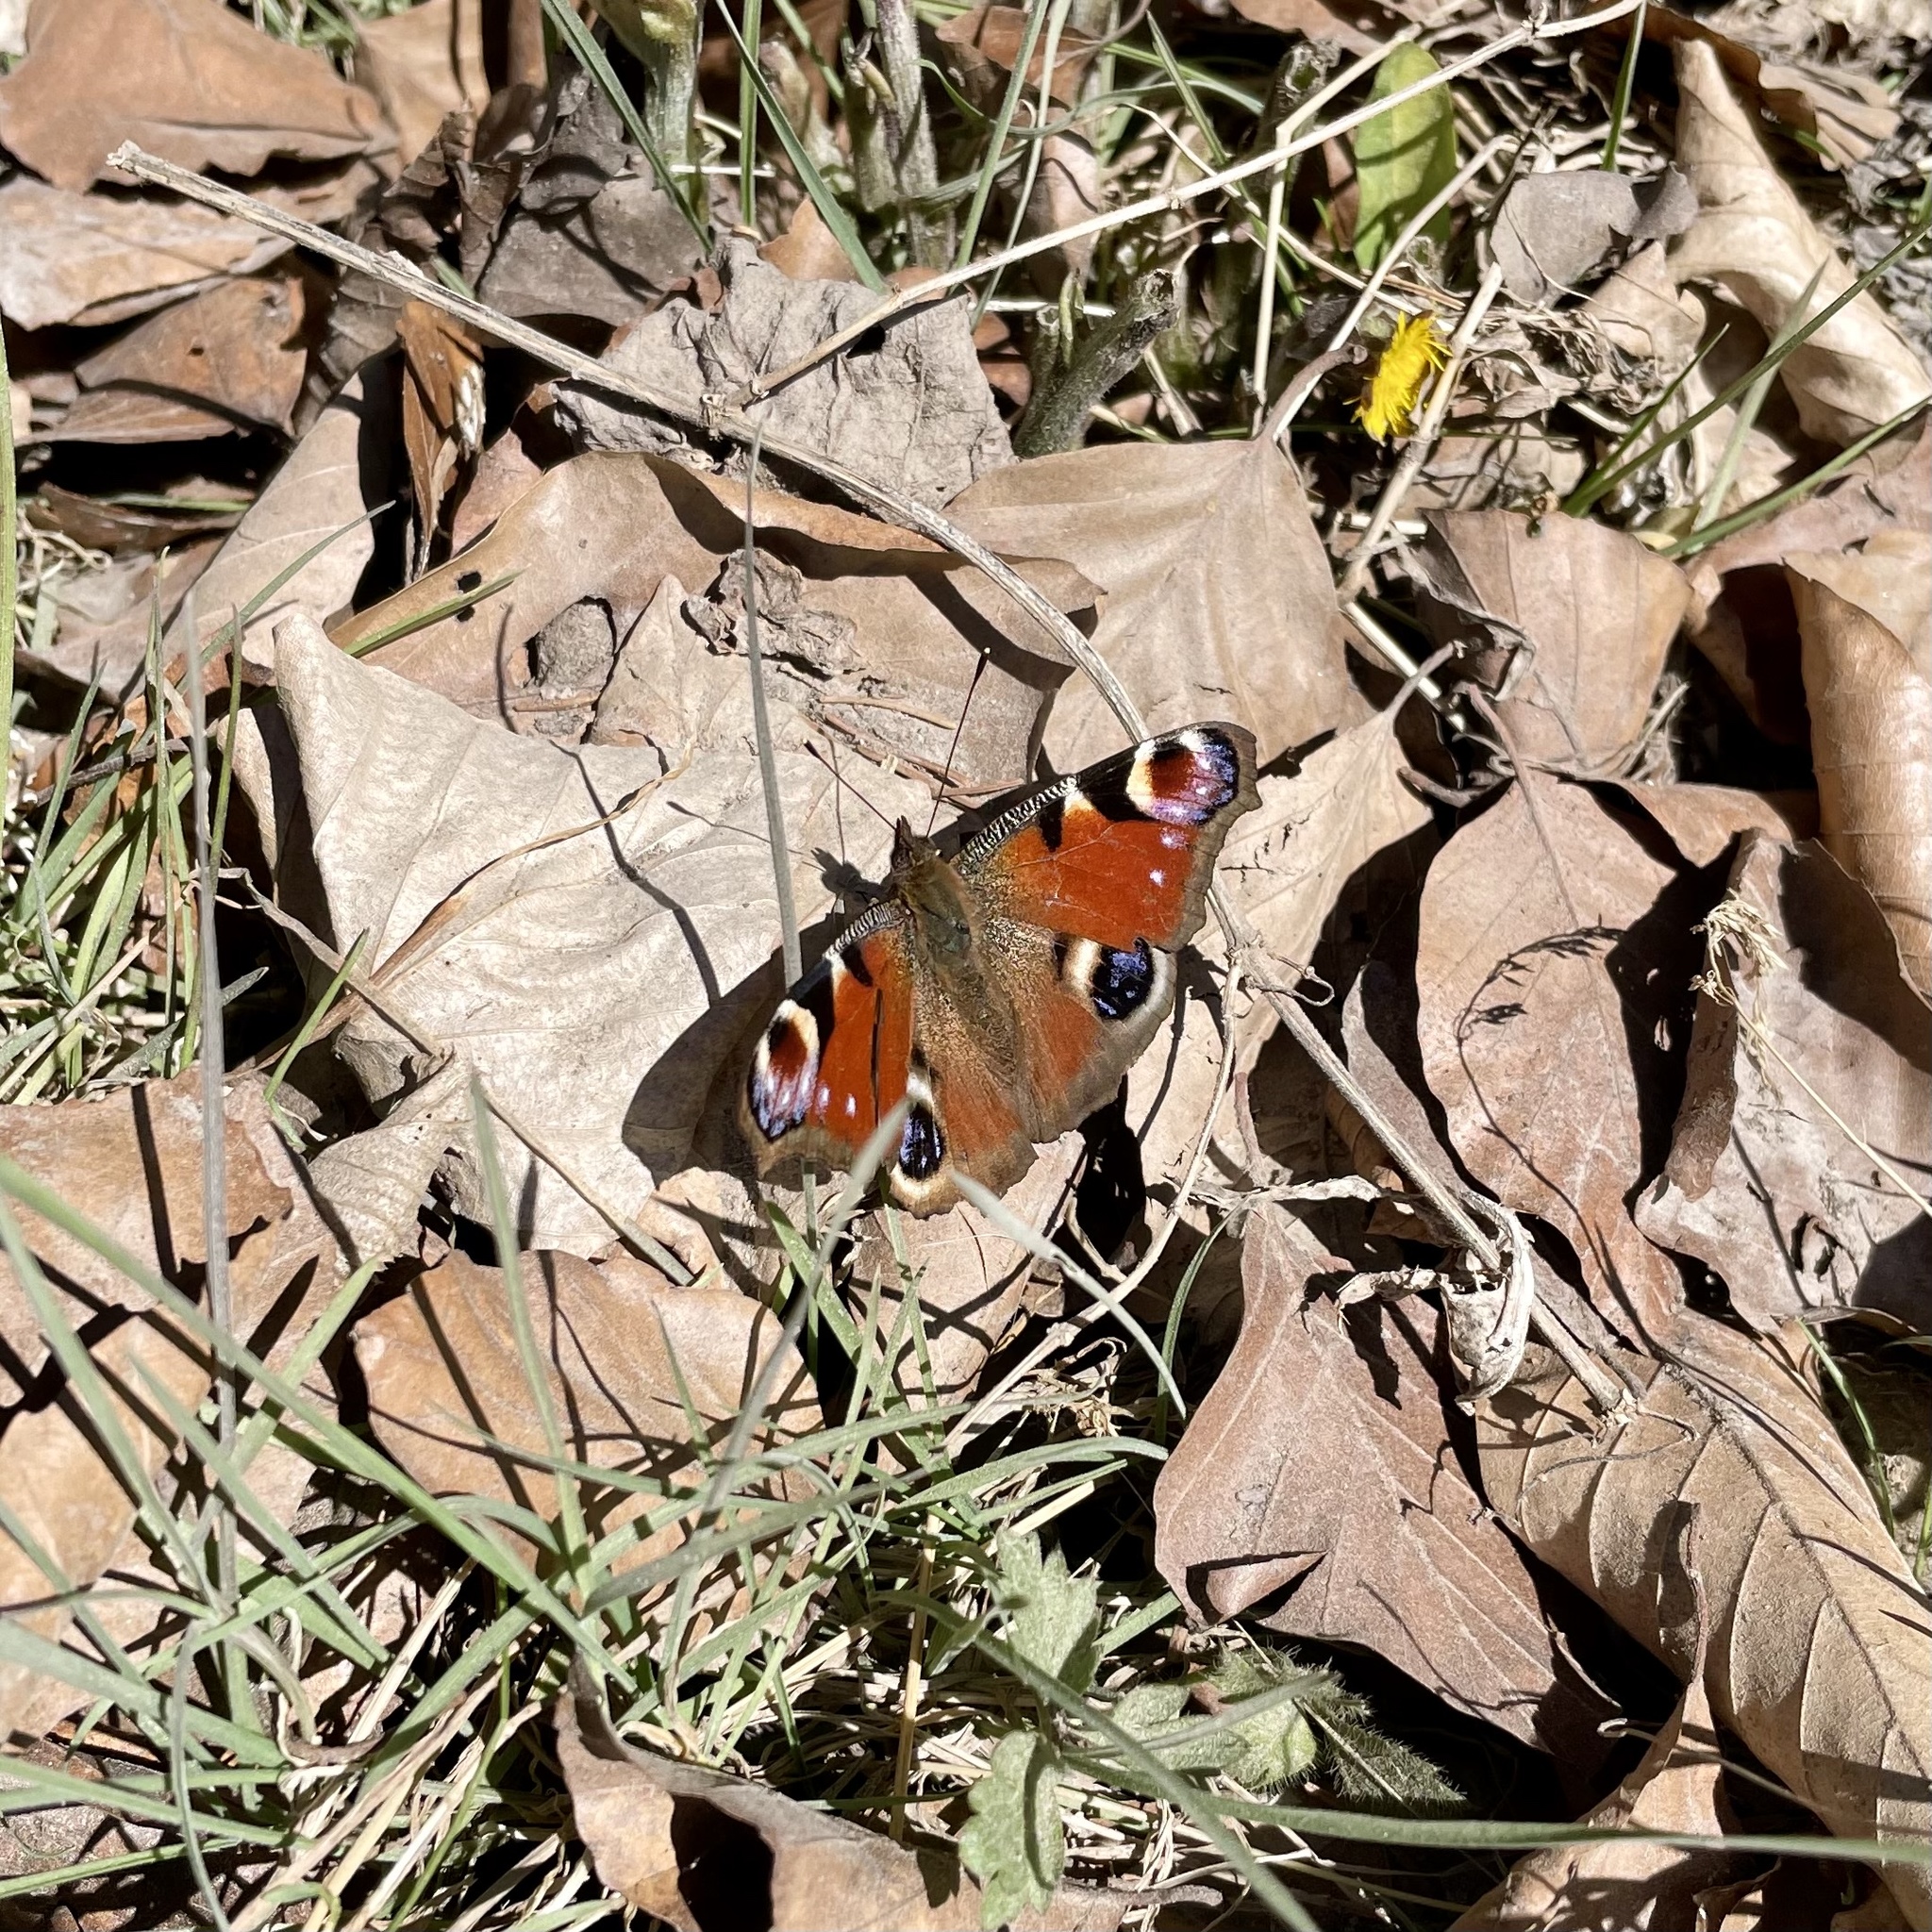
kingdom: Animalia
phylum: Arthropoda
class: Insecta
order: Lepidoptera
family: Nymphalidae
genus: Aglais
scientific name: Aglais io
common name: Peacock
